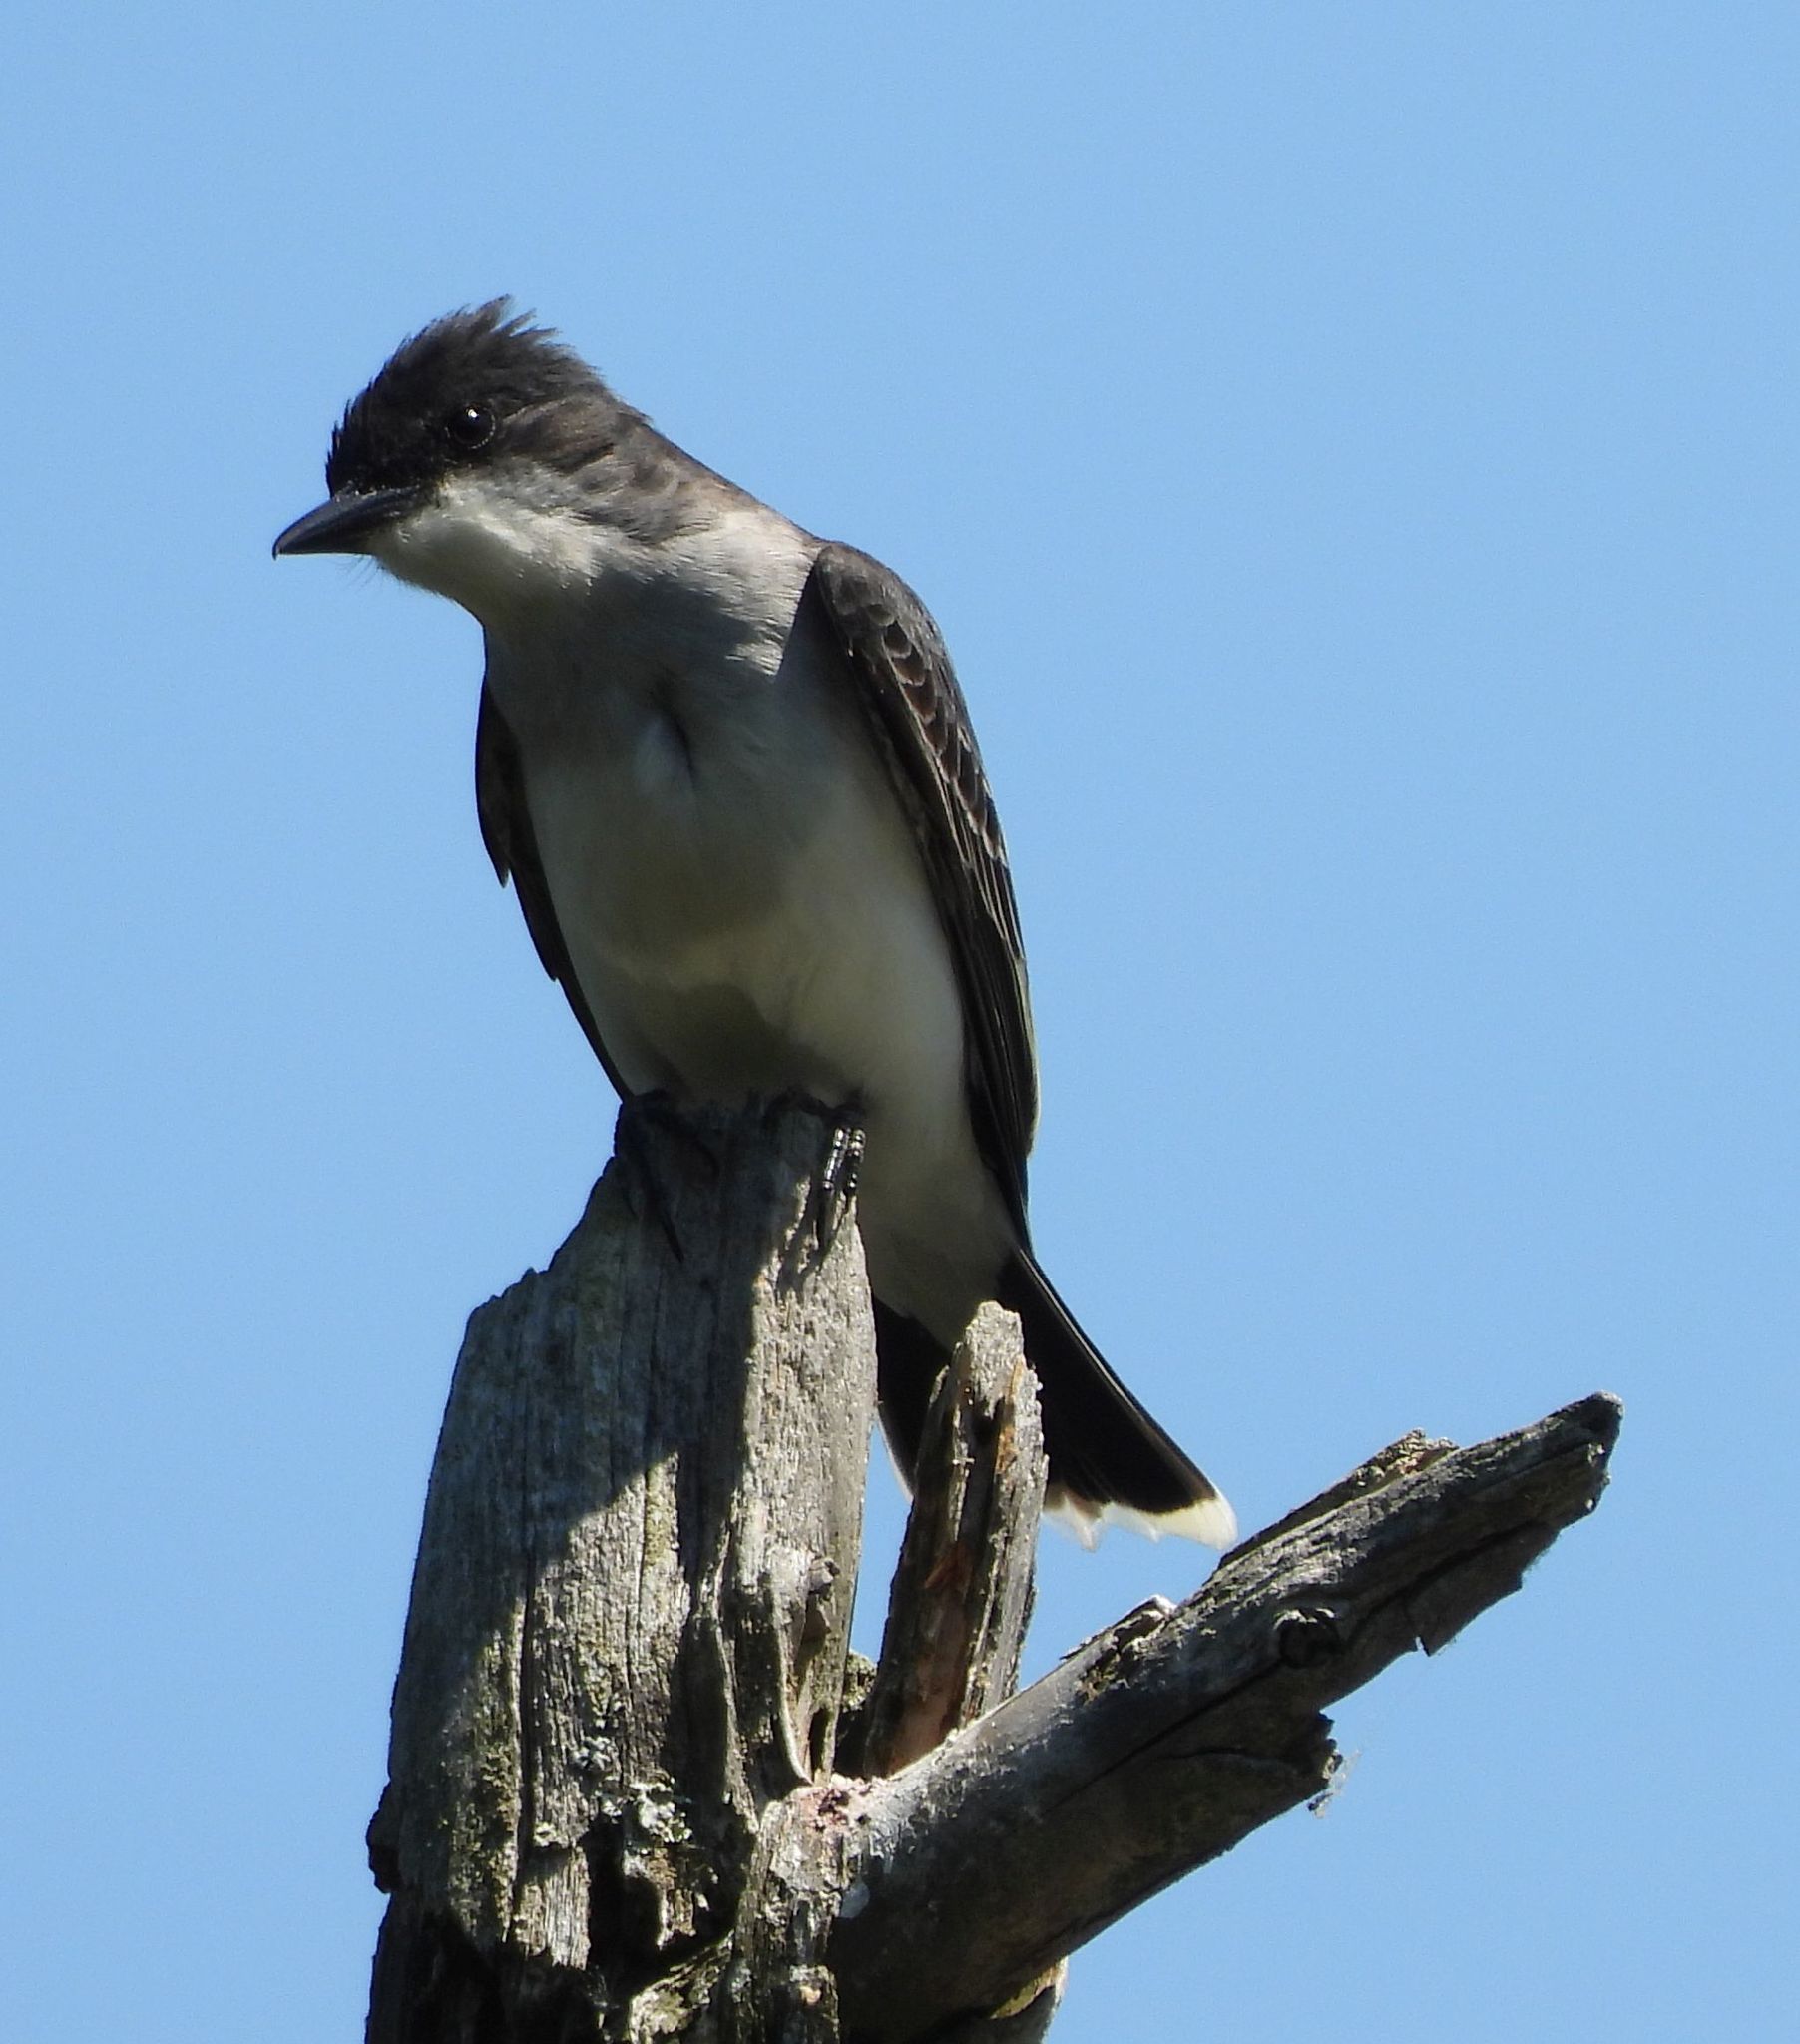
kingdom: Animalia
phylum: Chordata
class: Aves
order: Passeriformes
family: Tyrannidae
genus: Tyrannus
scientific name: Tyrannus tyrannus
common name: Eastern kingbird
